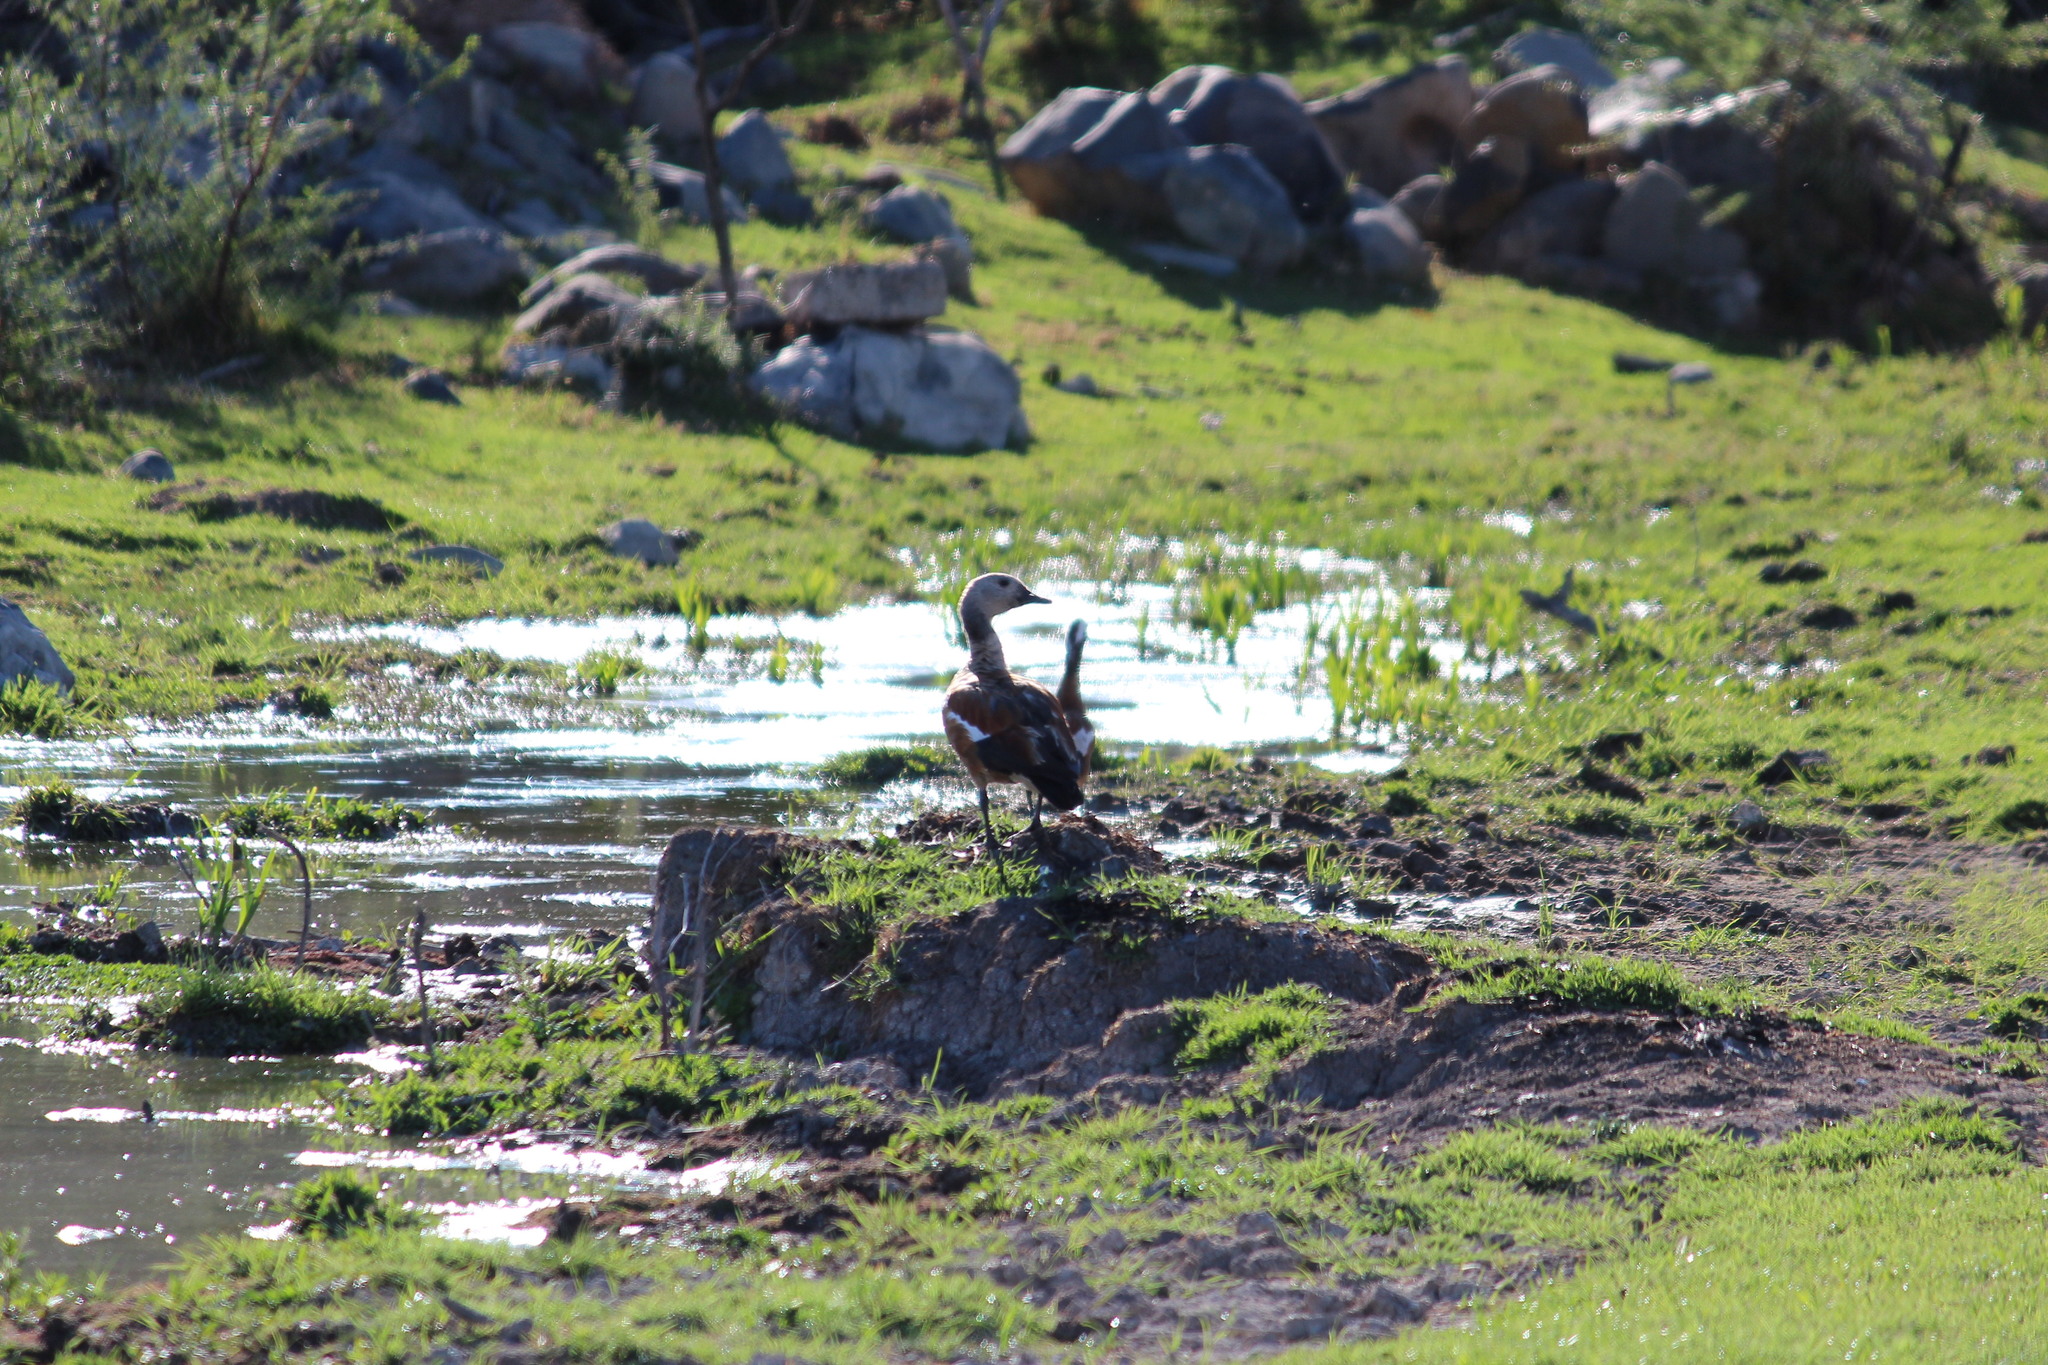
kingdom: Animalia
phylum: Chordata
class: Aves
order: Anseriformes
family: Anatidae
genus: Tadorna
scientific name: Tadorna cana
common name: South african shelduck
